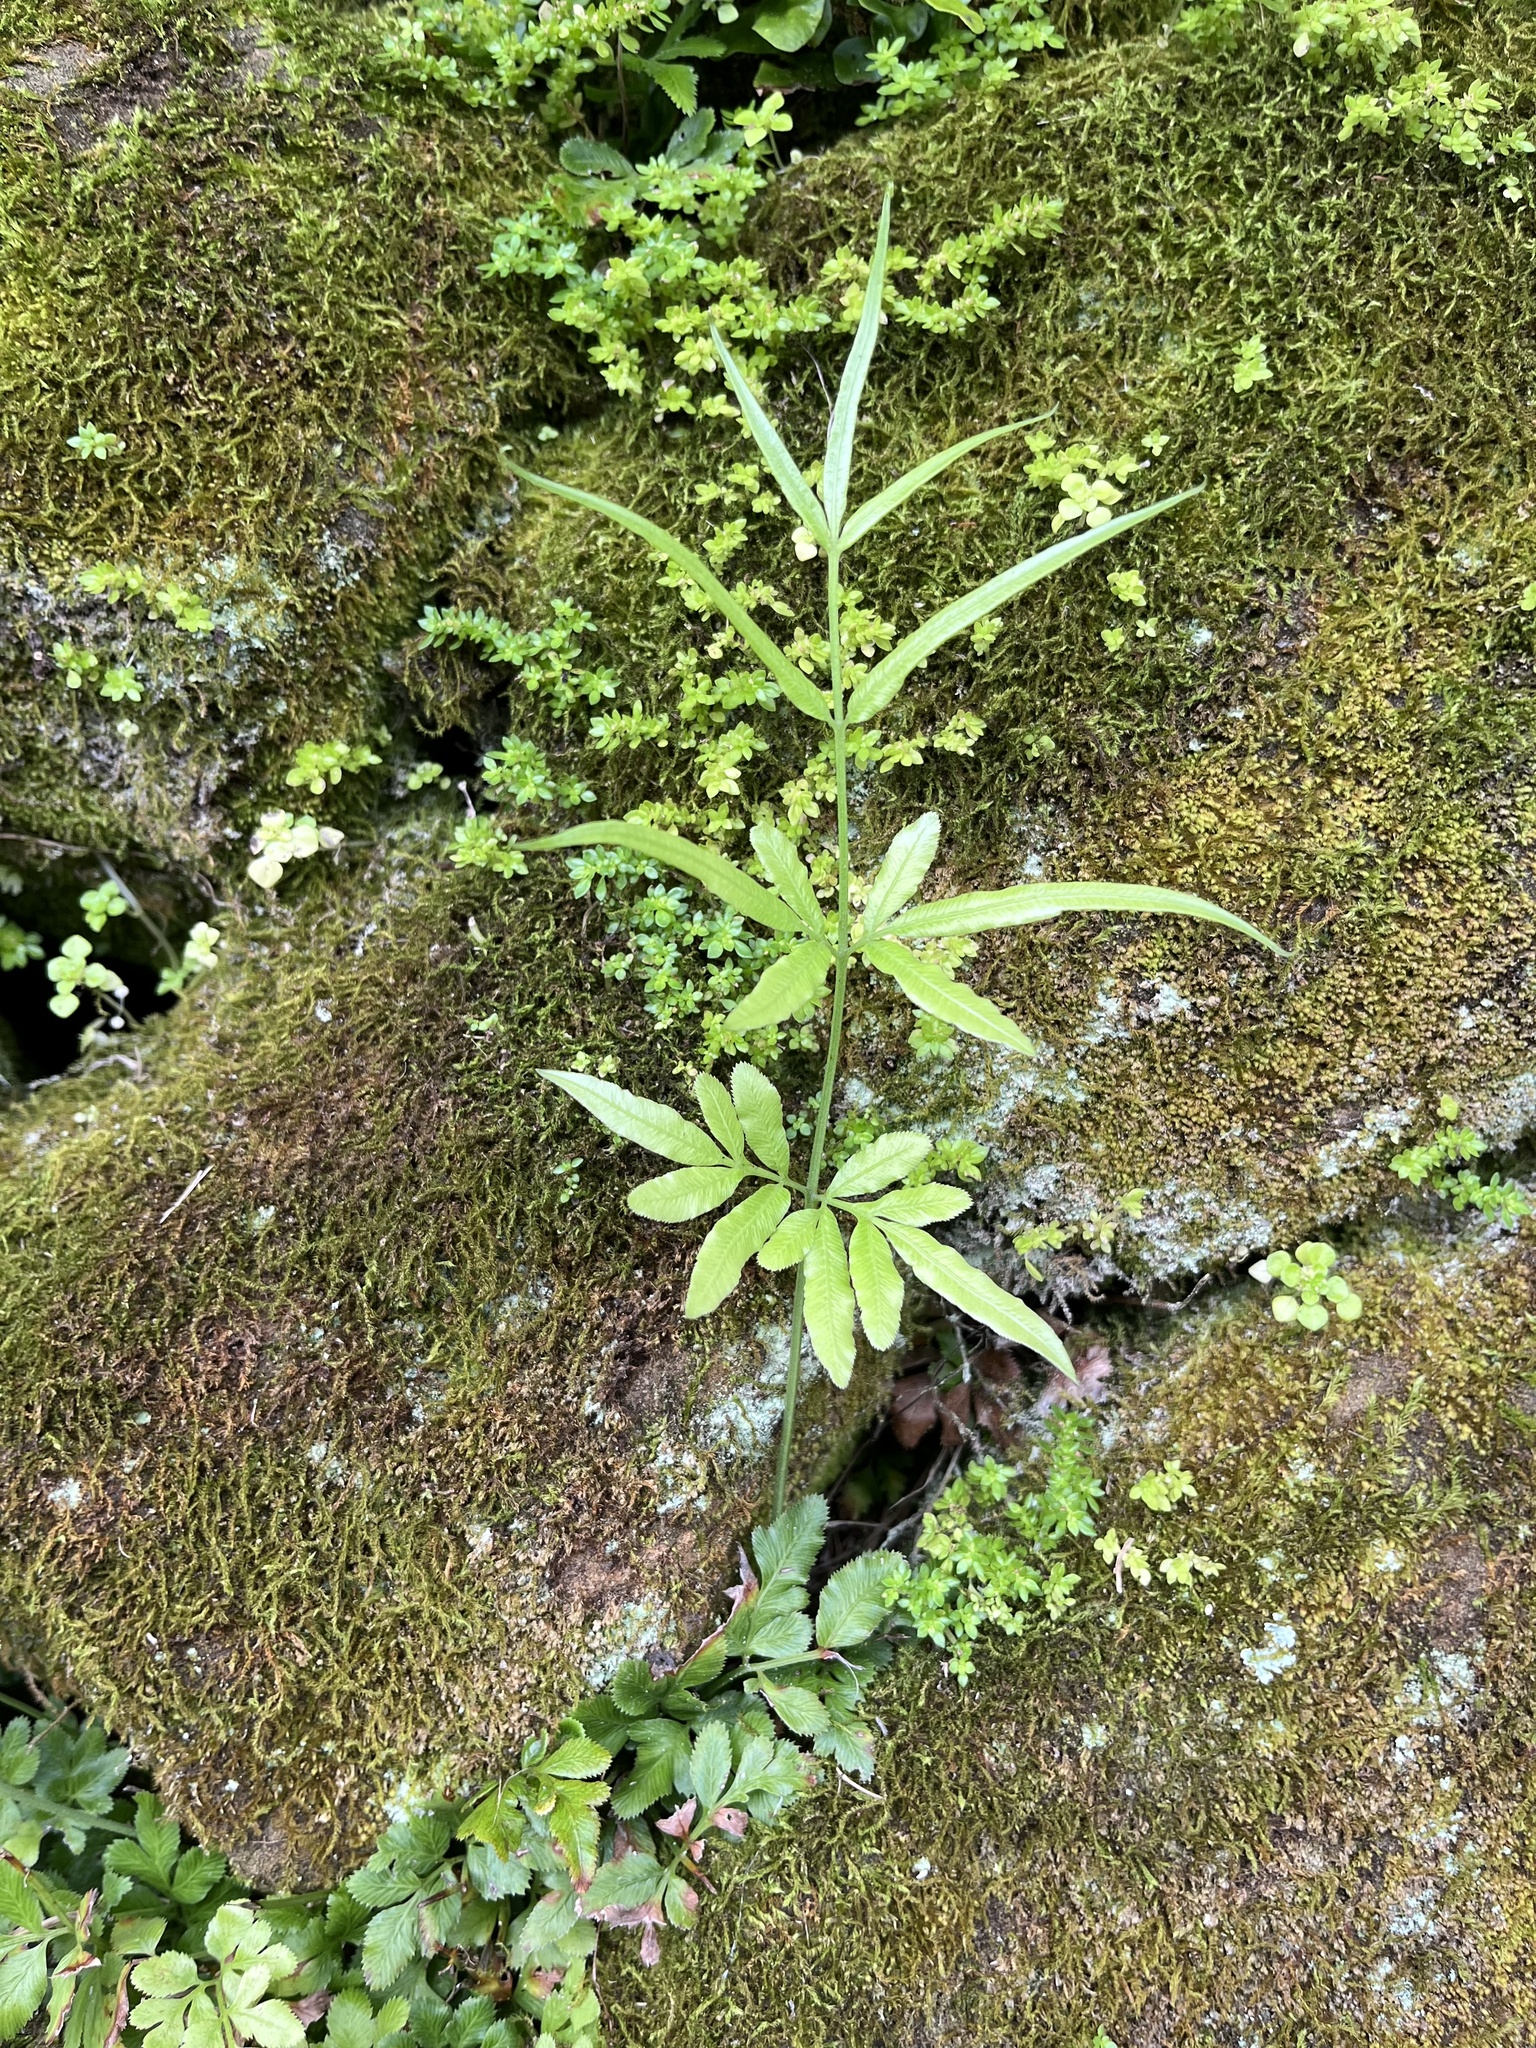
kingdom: Plantae
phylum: Tracheophyta
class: Polypodiopsida
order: Polypodiales
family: Pteridaceae
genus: Pteris
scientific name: Pteris ensiformis
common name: Sword brake
